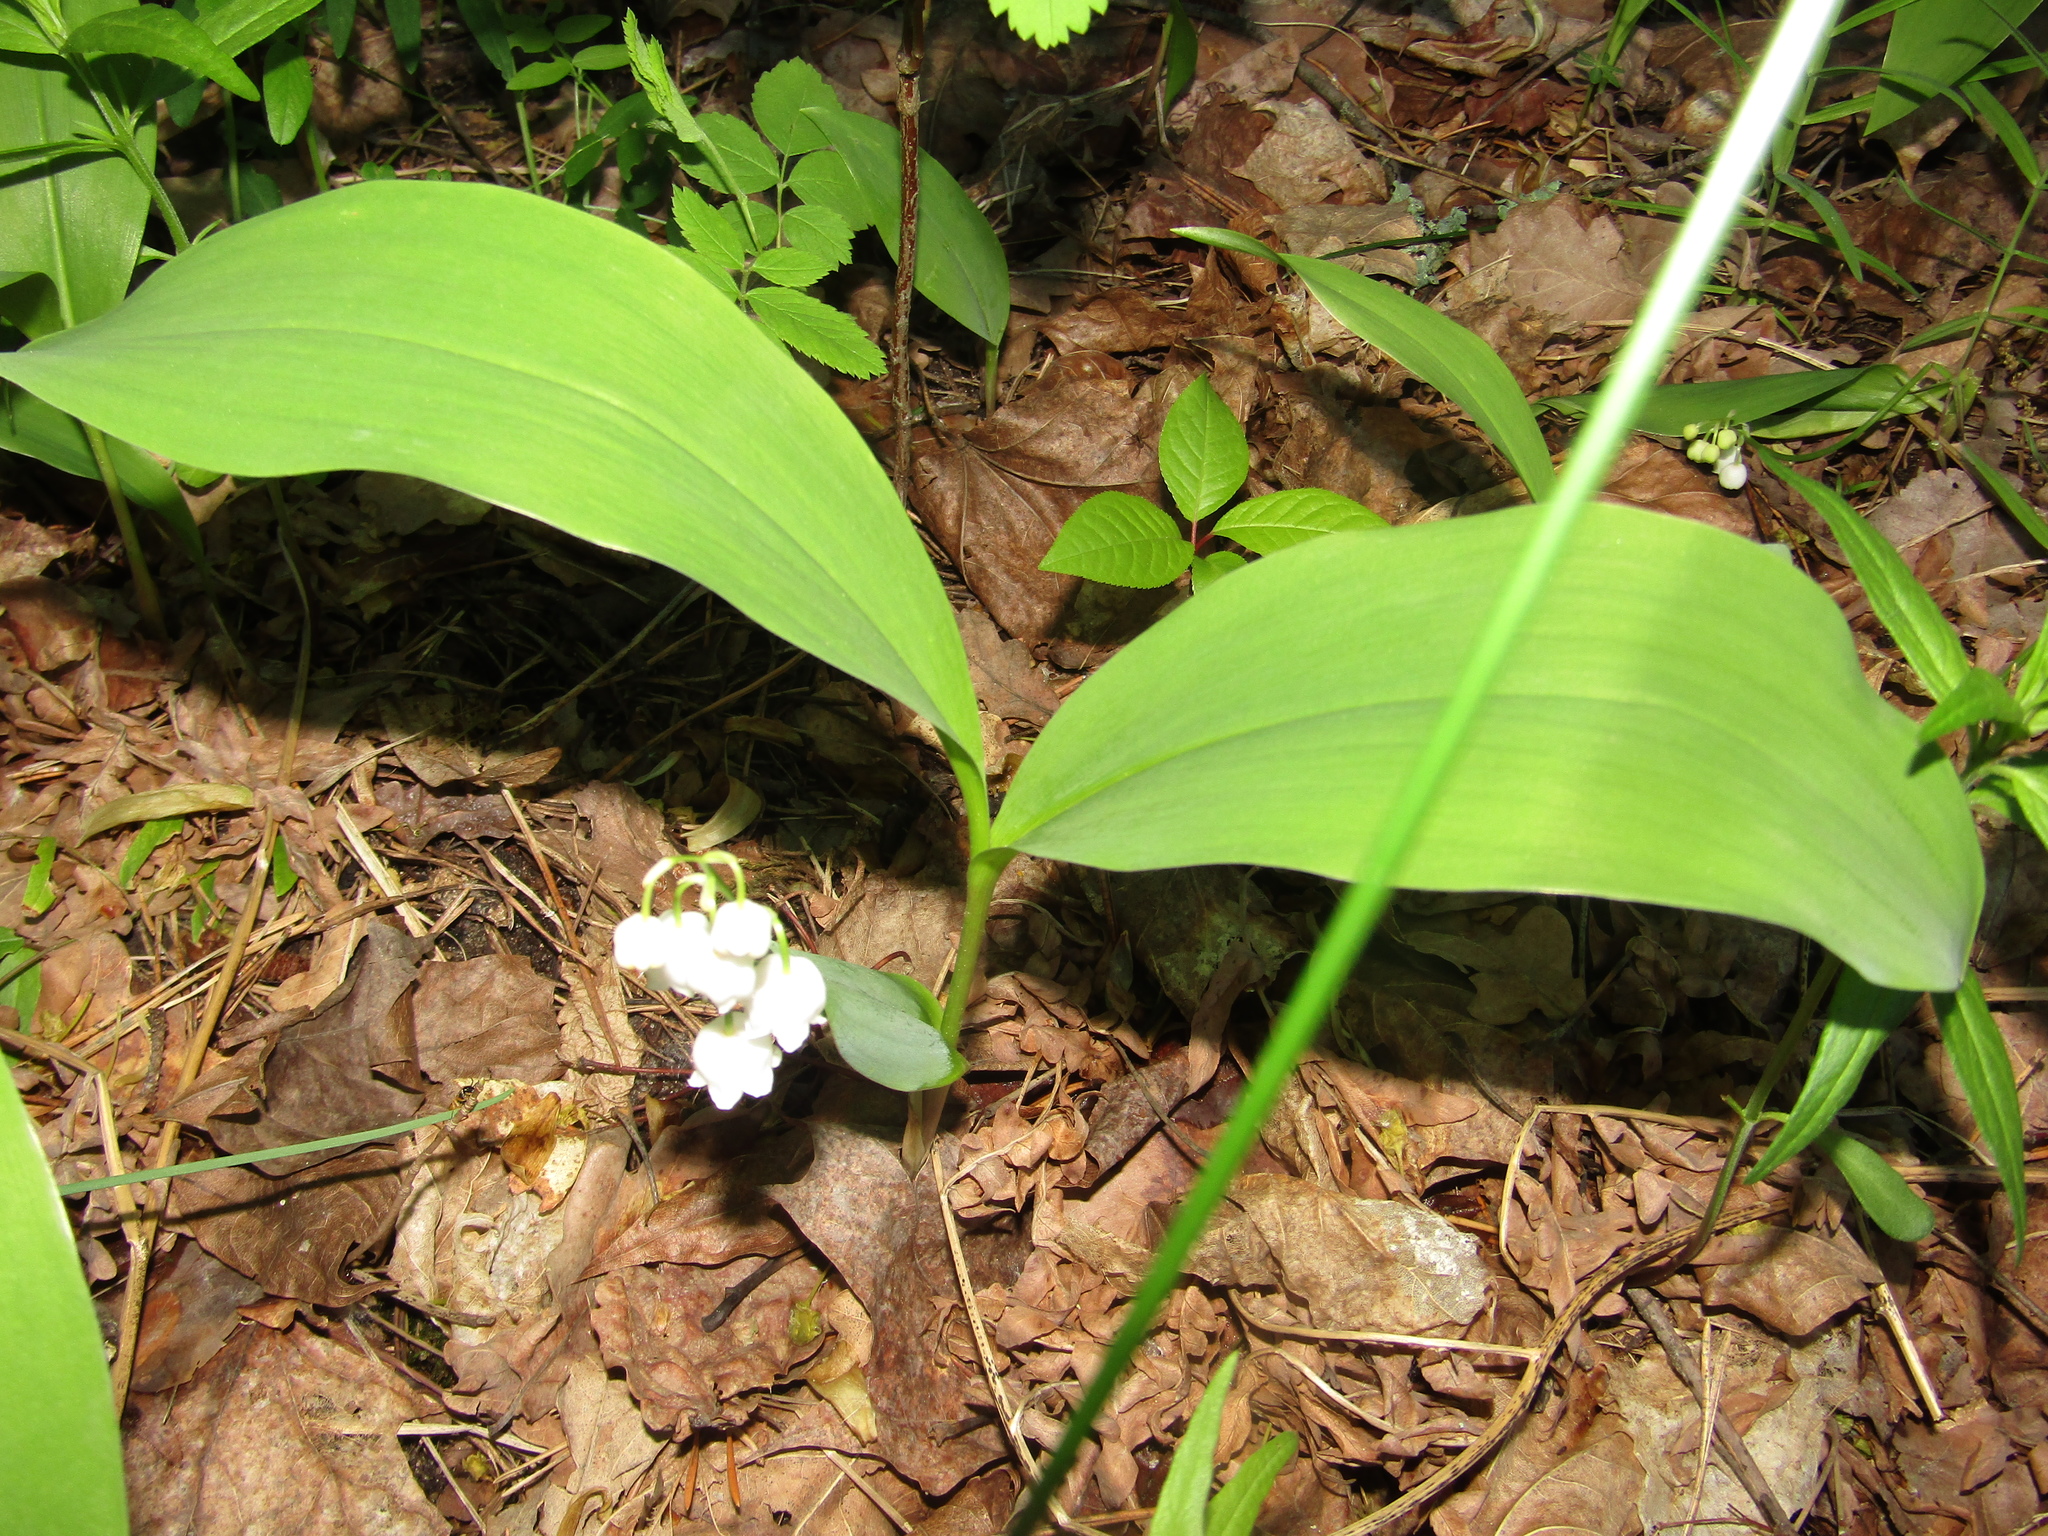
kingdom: Plantae
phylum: Tracheophyta
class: Liliopsida
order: Asparagales
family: Asparagaceae
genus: Convallaria
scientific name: Convallaria majalis
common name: Lily-of-the-valley
